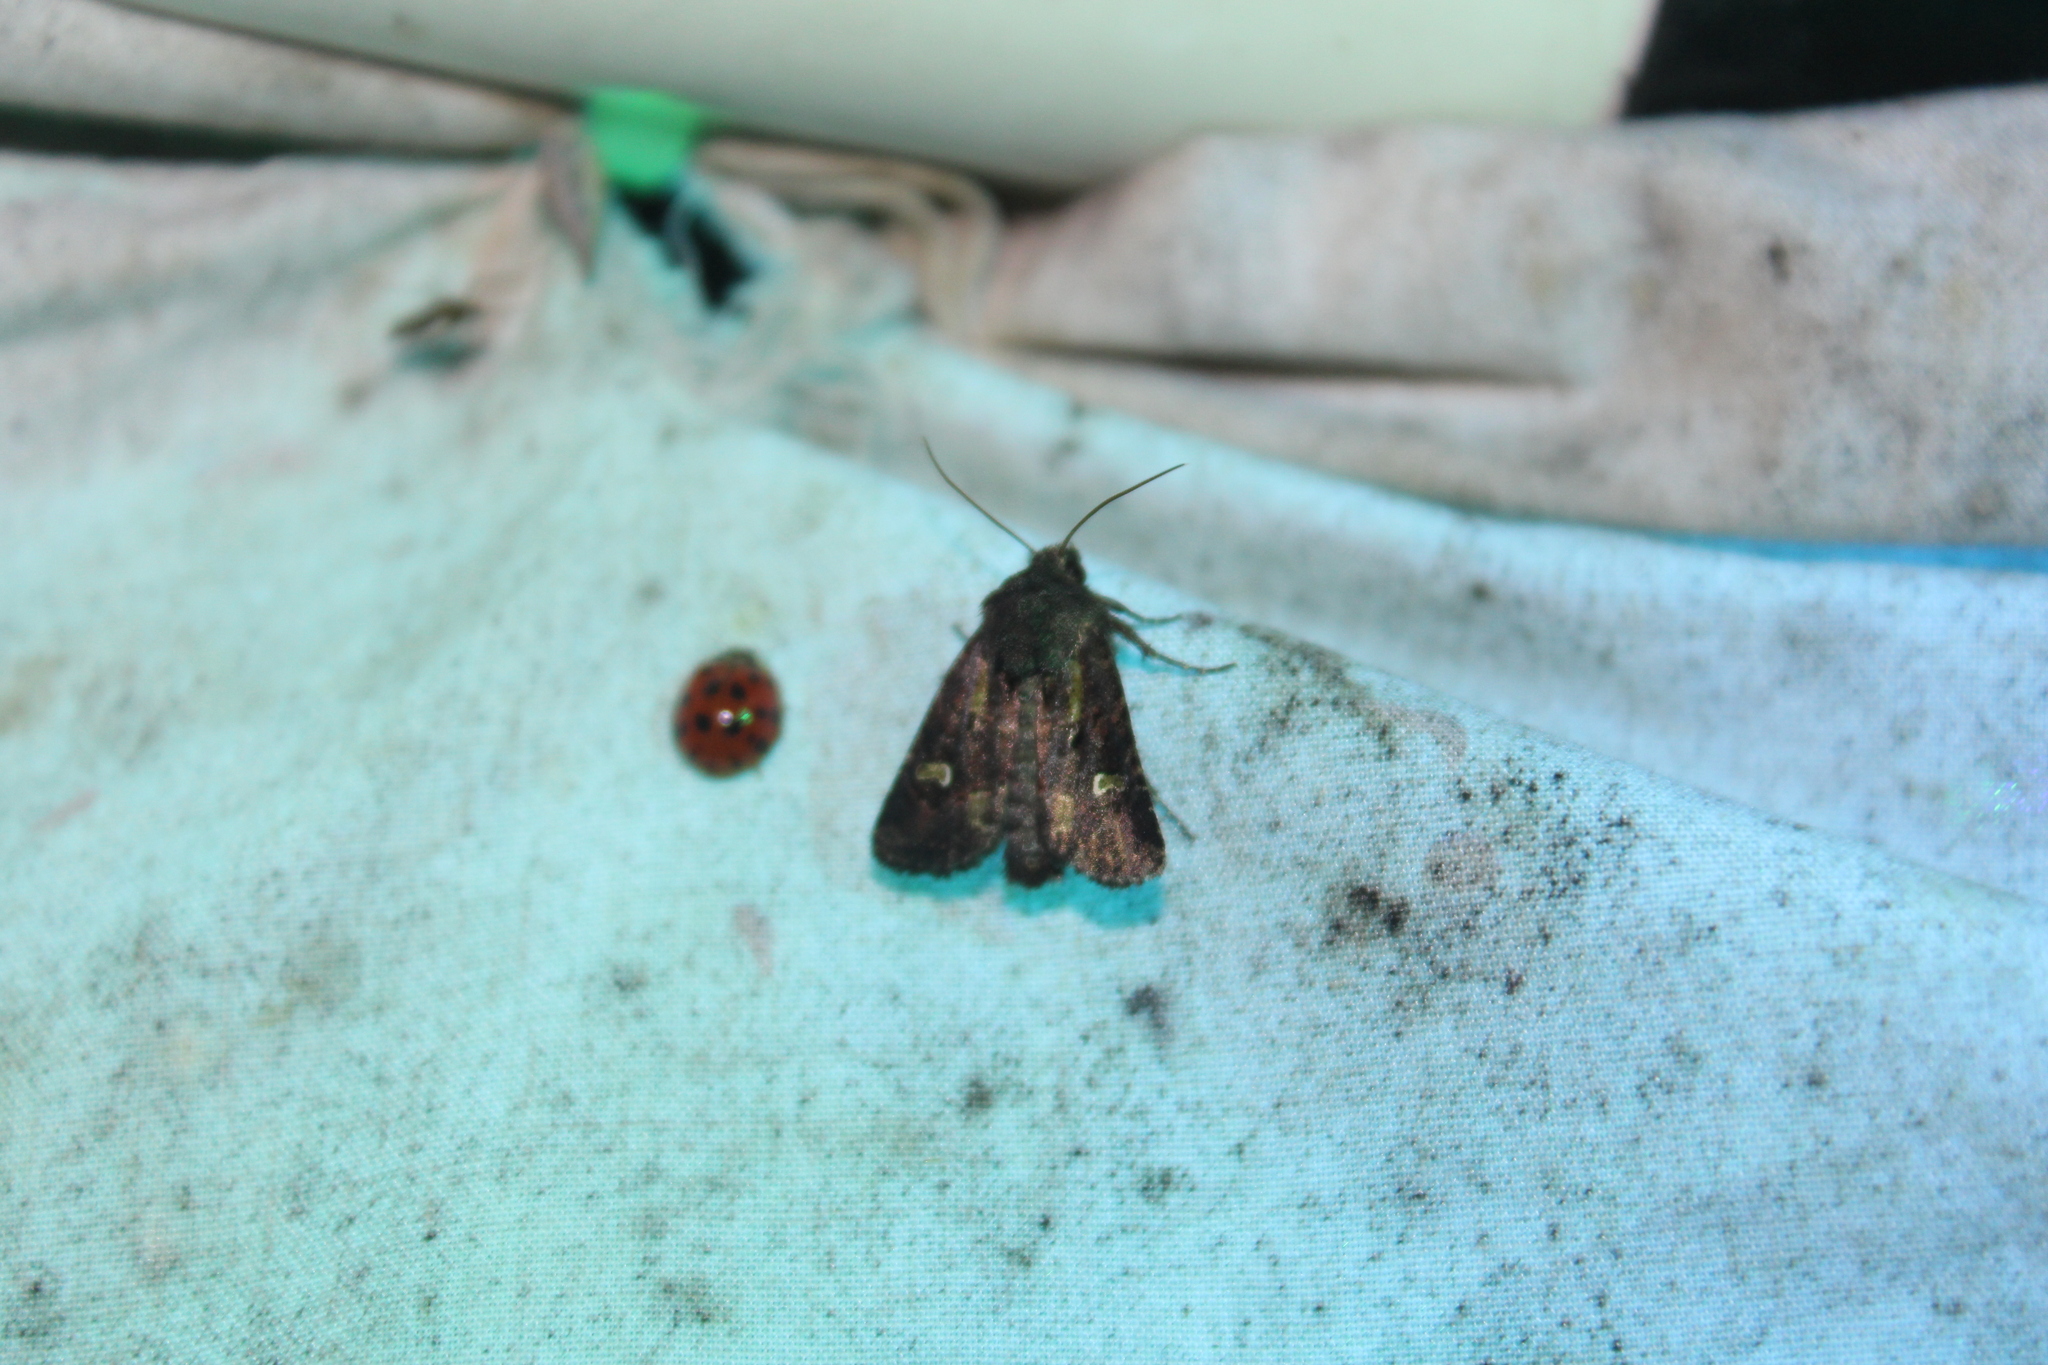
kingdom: Animalia
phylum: Arthropoda
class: Insecta
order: Lepidoptera
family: Noctuidae
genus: Lacinipolia
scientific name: Lacinipolia renigera
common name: Kidney-spotted minor
